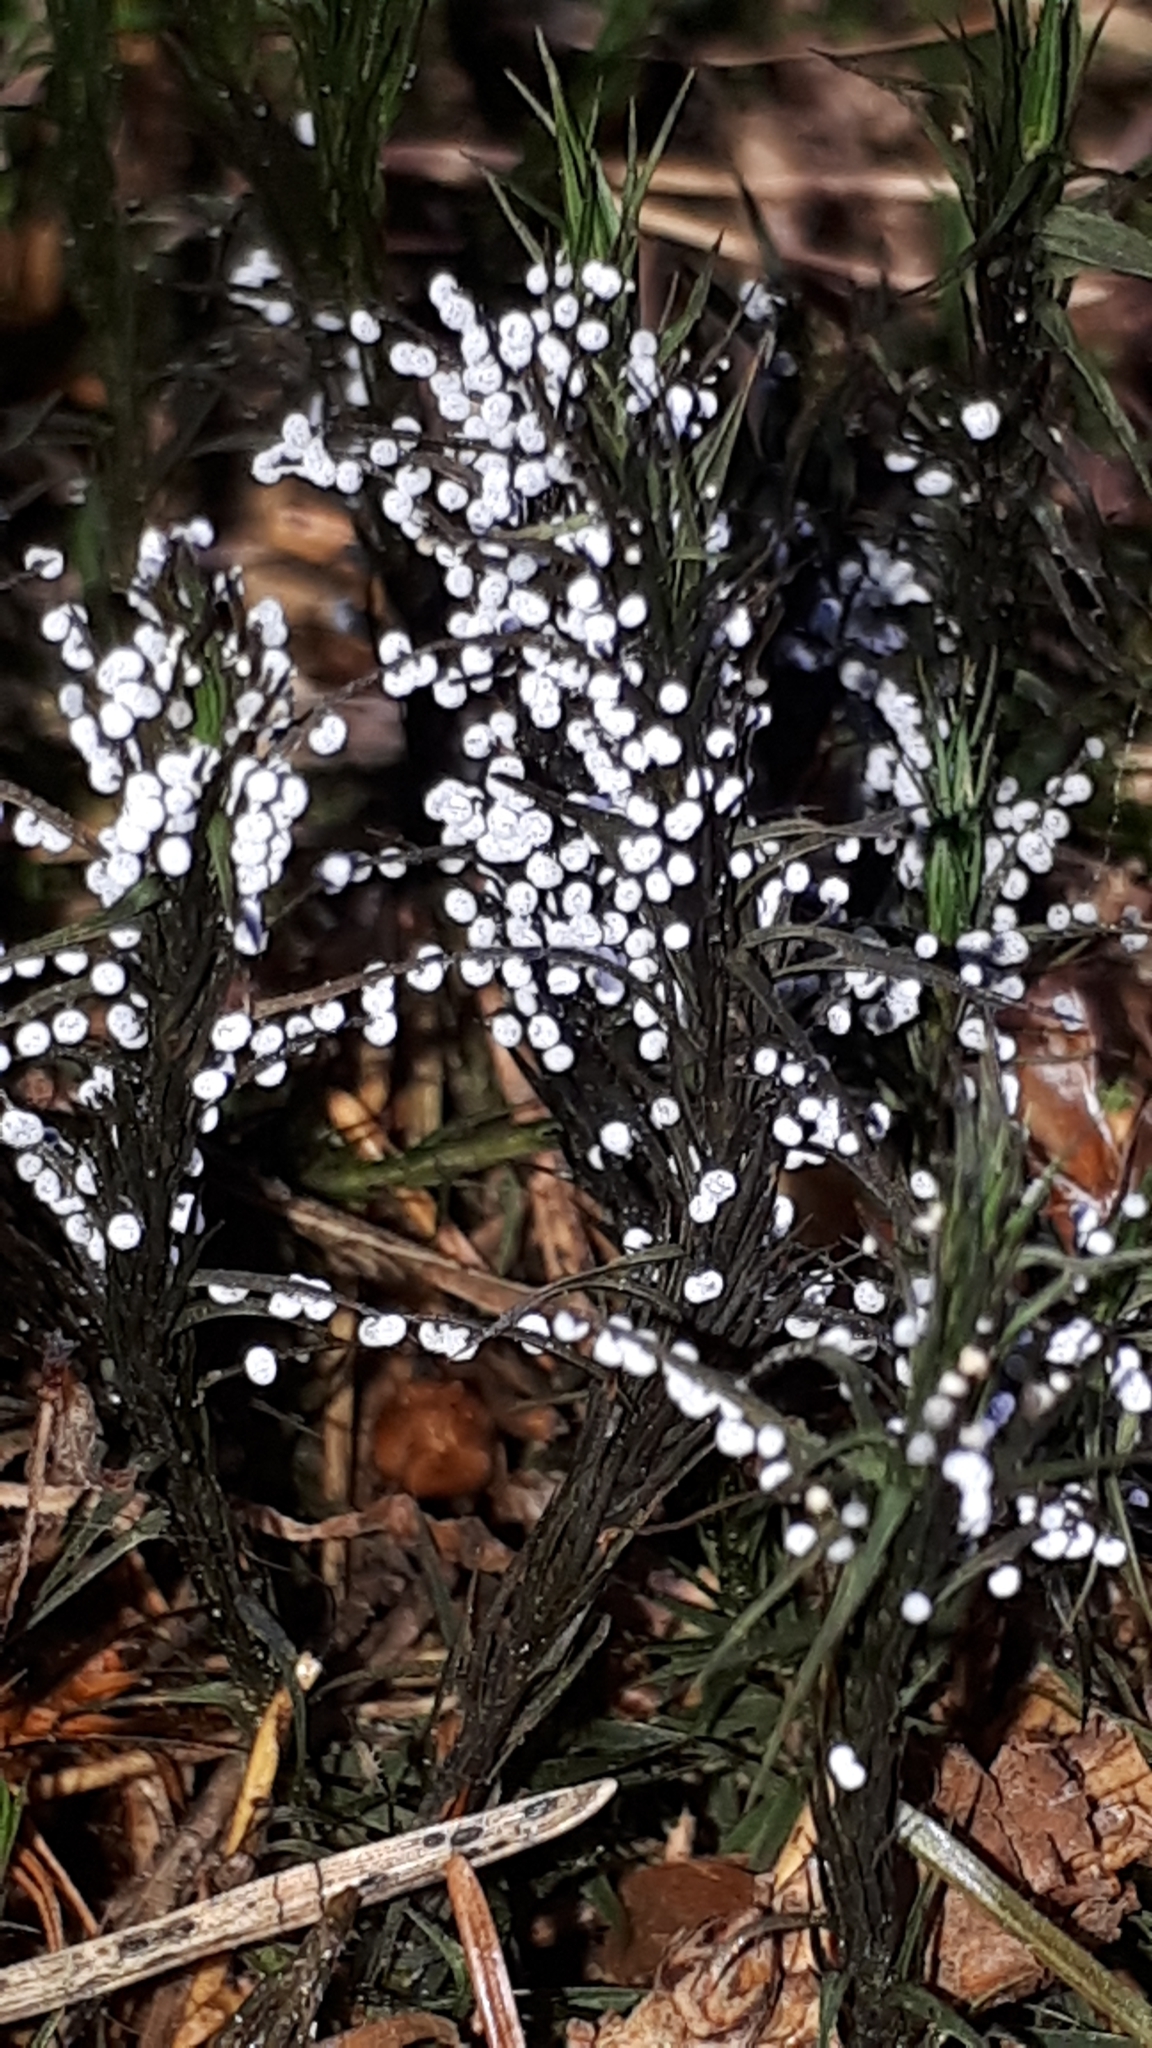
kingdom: Protozoa
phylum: Mycetozoa
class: Myxomycetes
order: Physarales
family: Didymiaceae
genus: Didymium
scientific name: Didymium melanospermum
